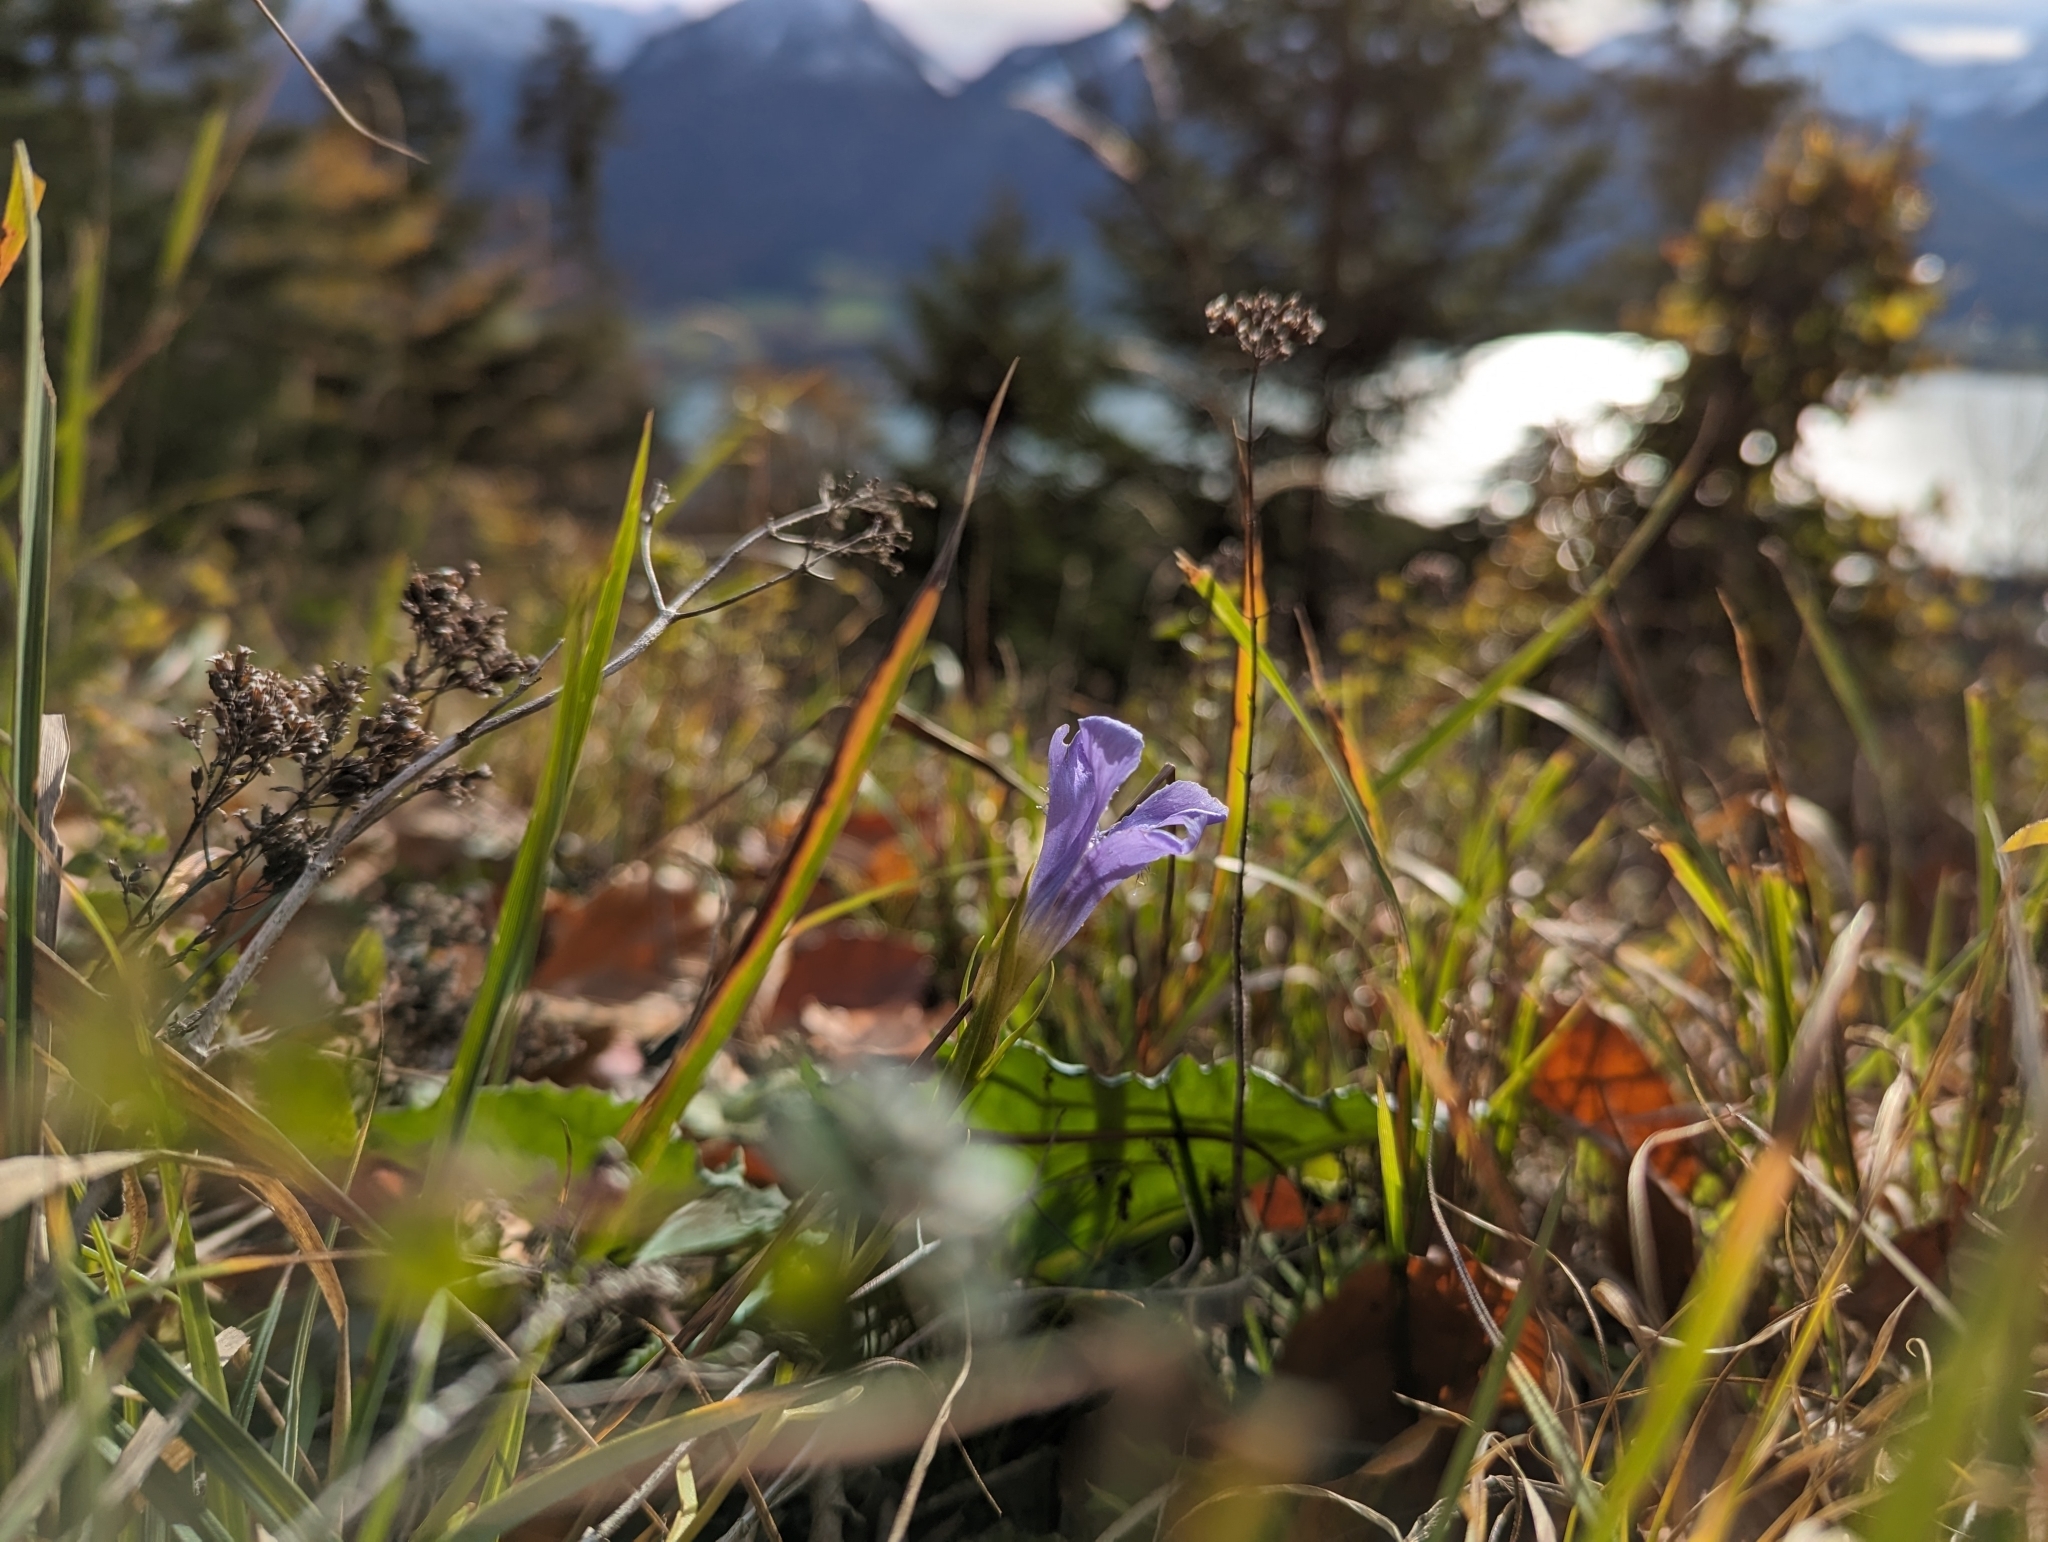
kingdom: Plantae
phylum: Tracheophyta
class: Magnoliopsida
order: Gentianales
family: Gentianaceae
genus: Gentianopsis
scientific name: Gentianopsis ciliata
